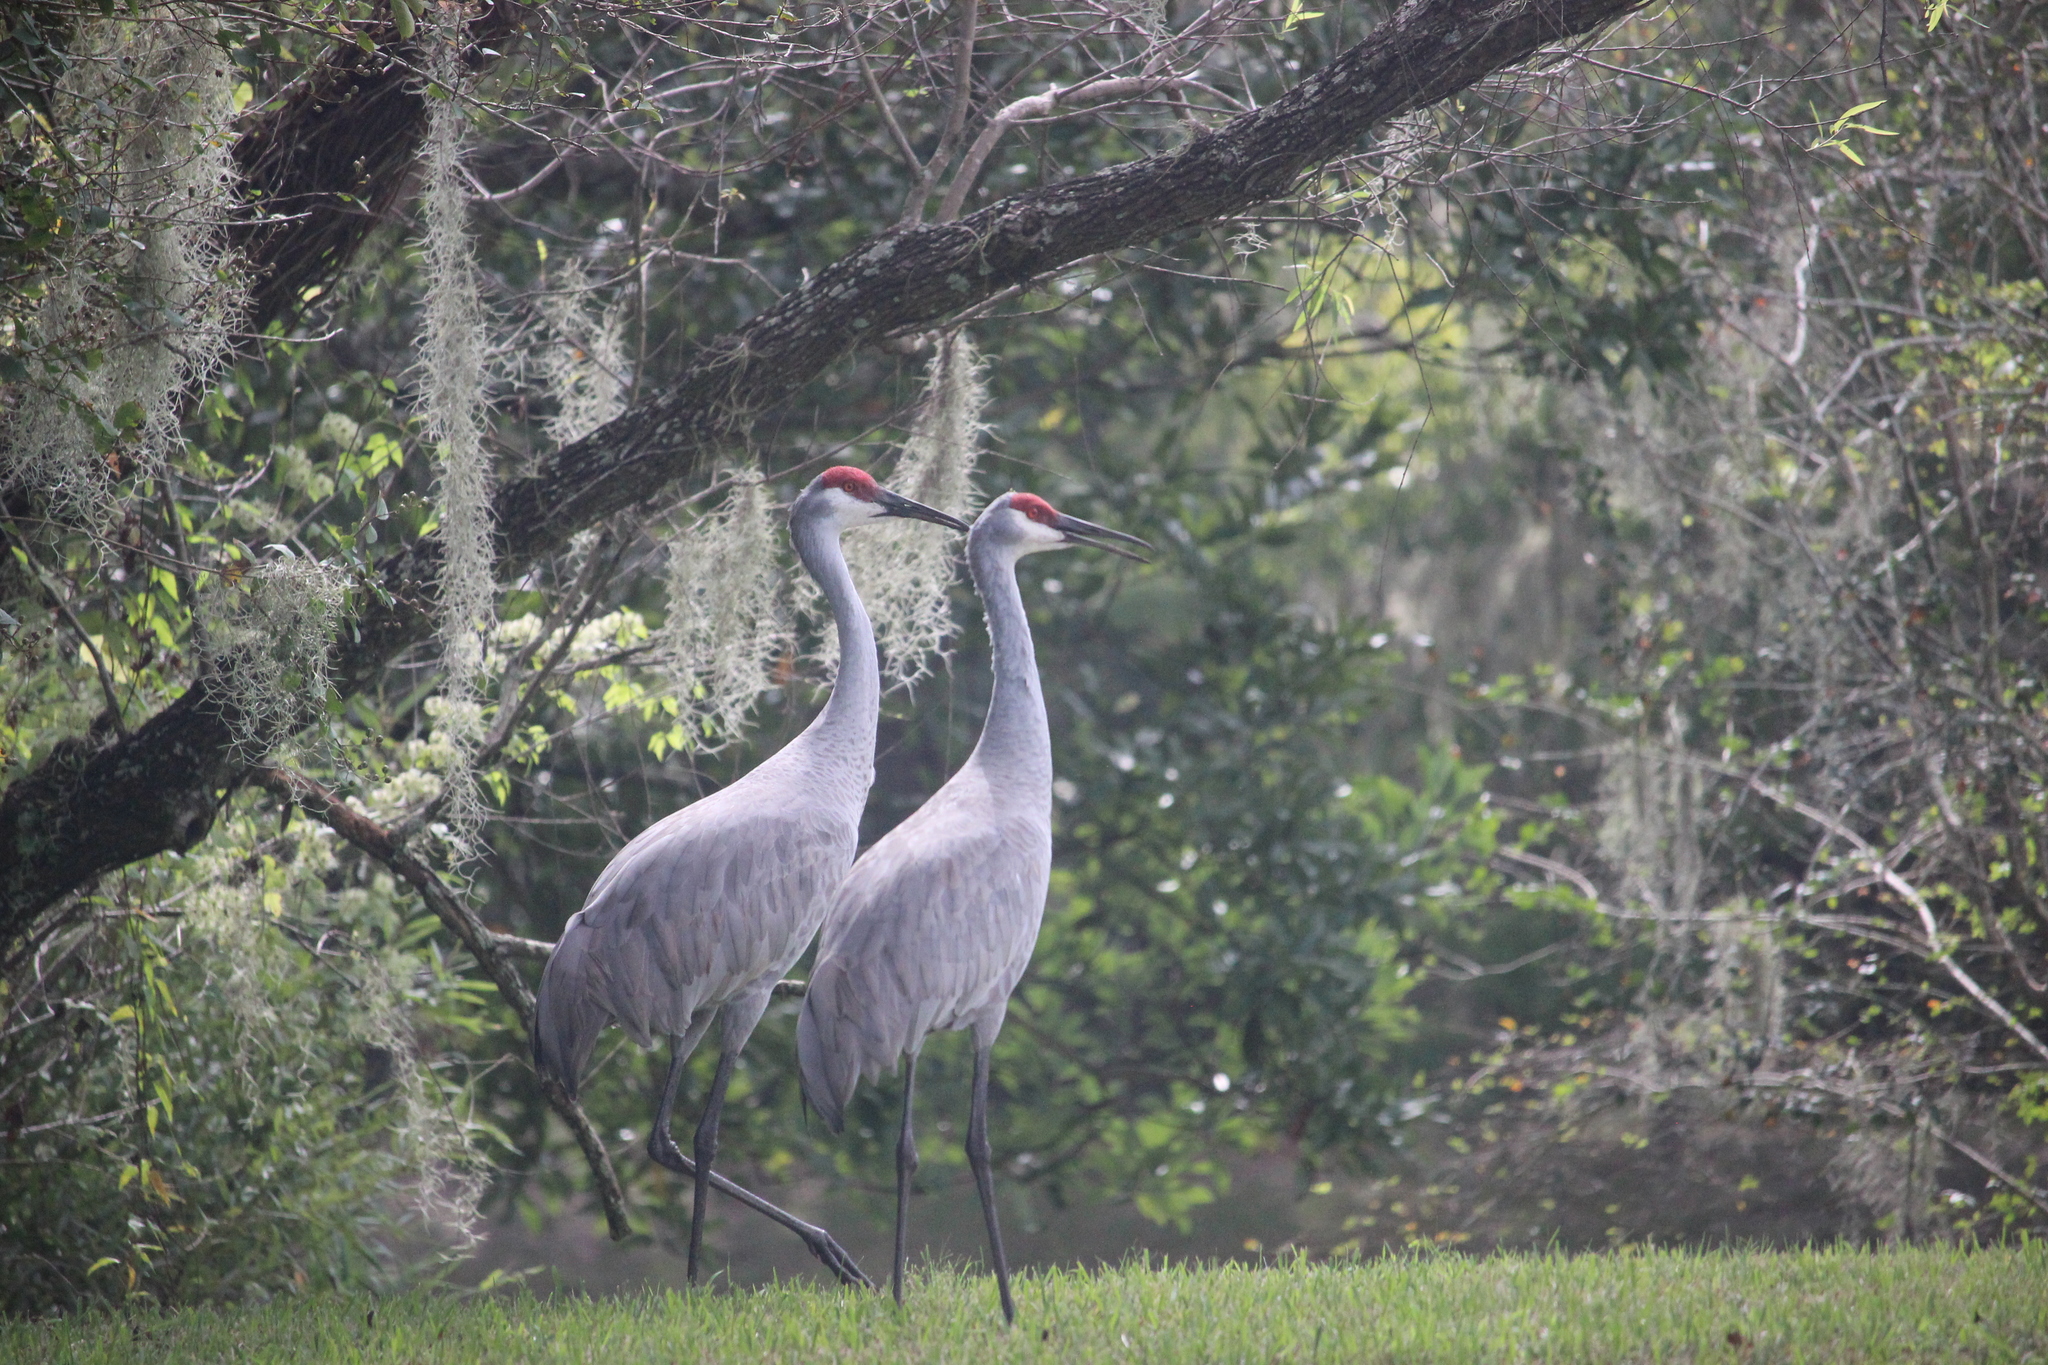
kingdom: Animalia
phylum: Chordata
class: Aves
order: Gruiformes
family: Gruidae
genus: Grus
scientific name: Grus canadensis
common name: Sandhill crane
